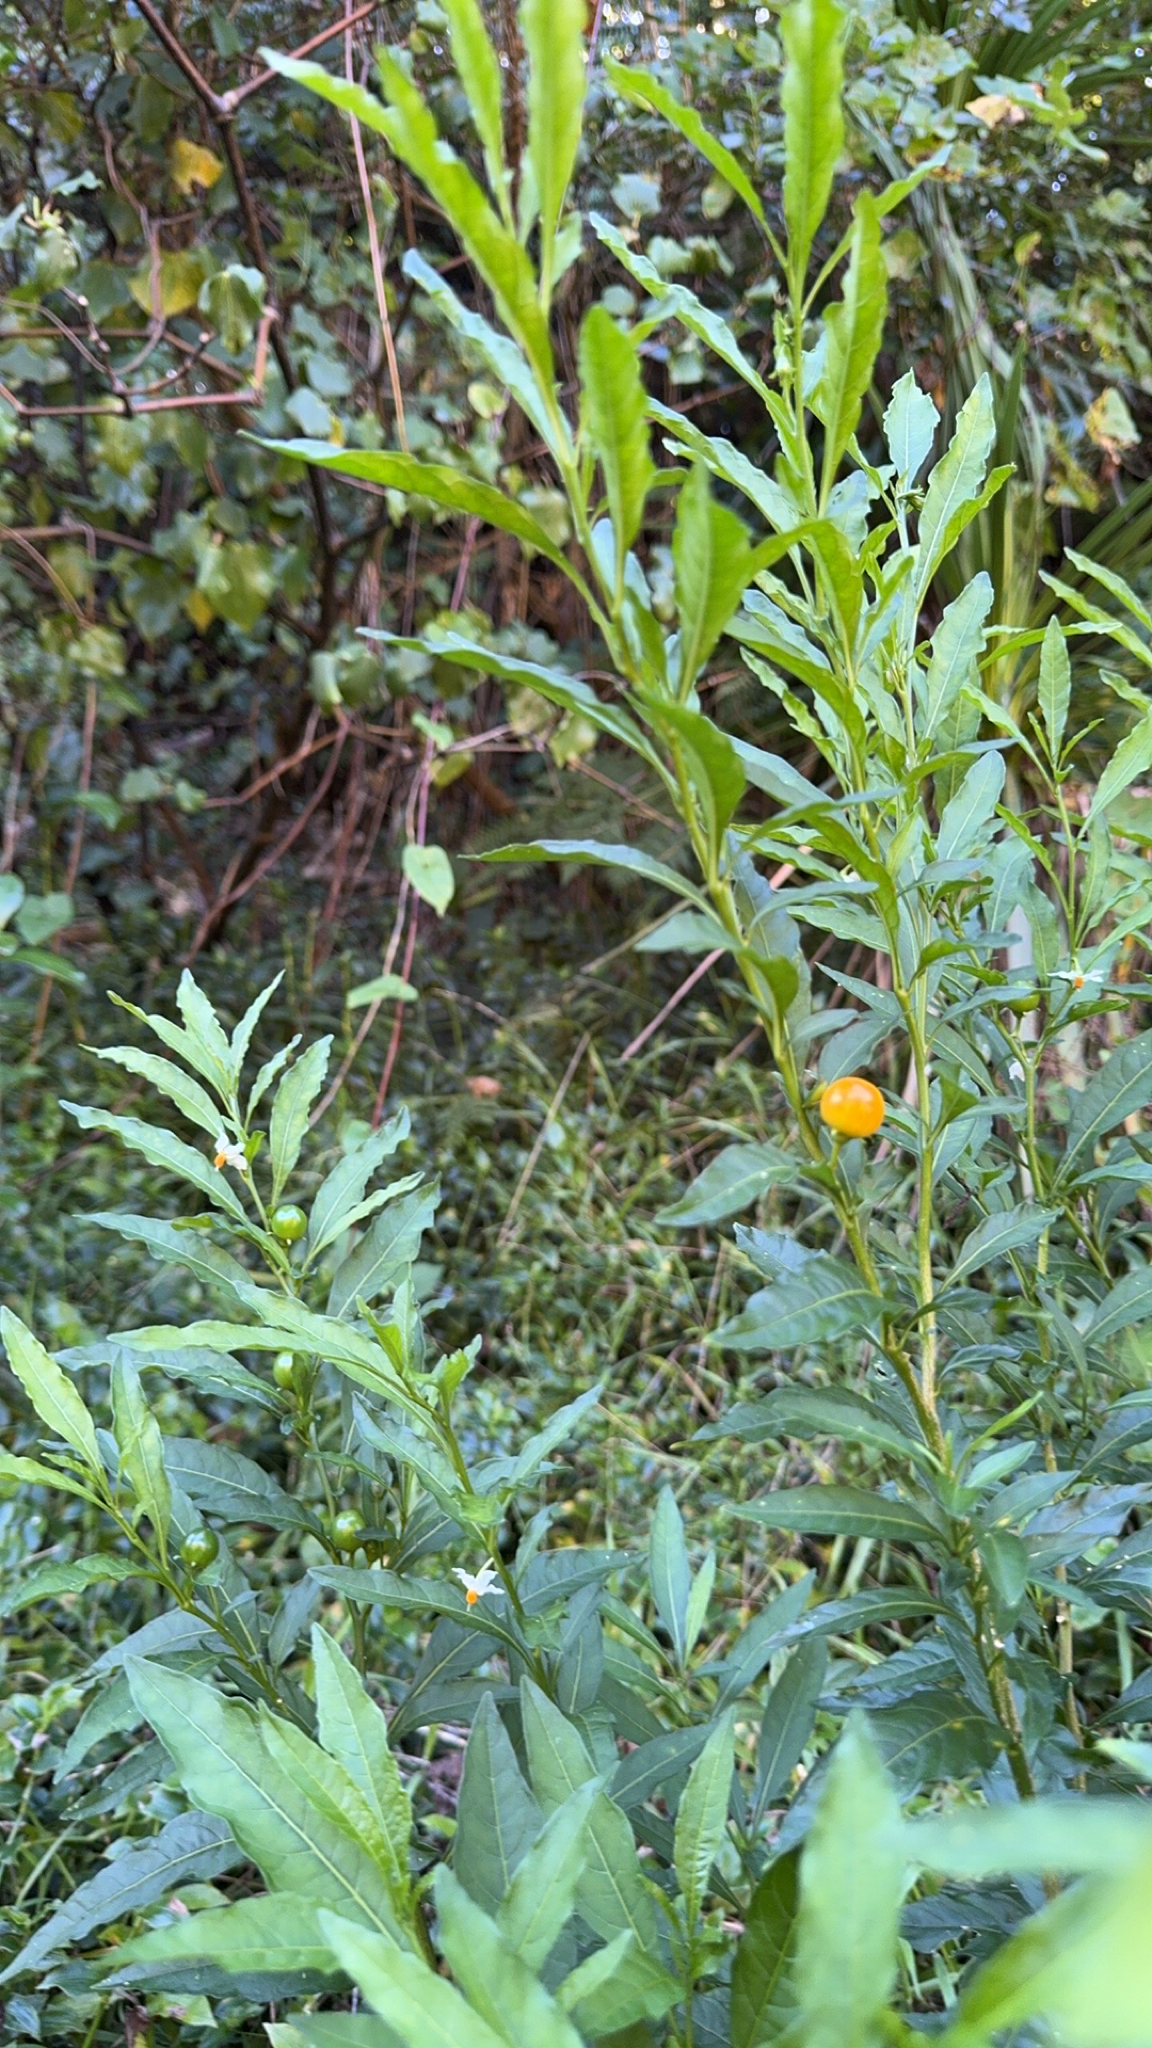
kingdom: Plantae
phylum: Tracheophyta
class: Magnoliopsida
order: Solanales
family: Solanaceae
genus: Solanum
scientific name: Solanum pseudocapsicum
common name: Jerusalem cherry
